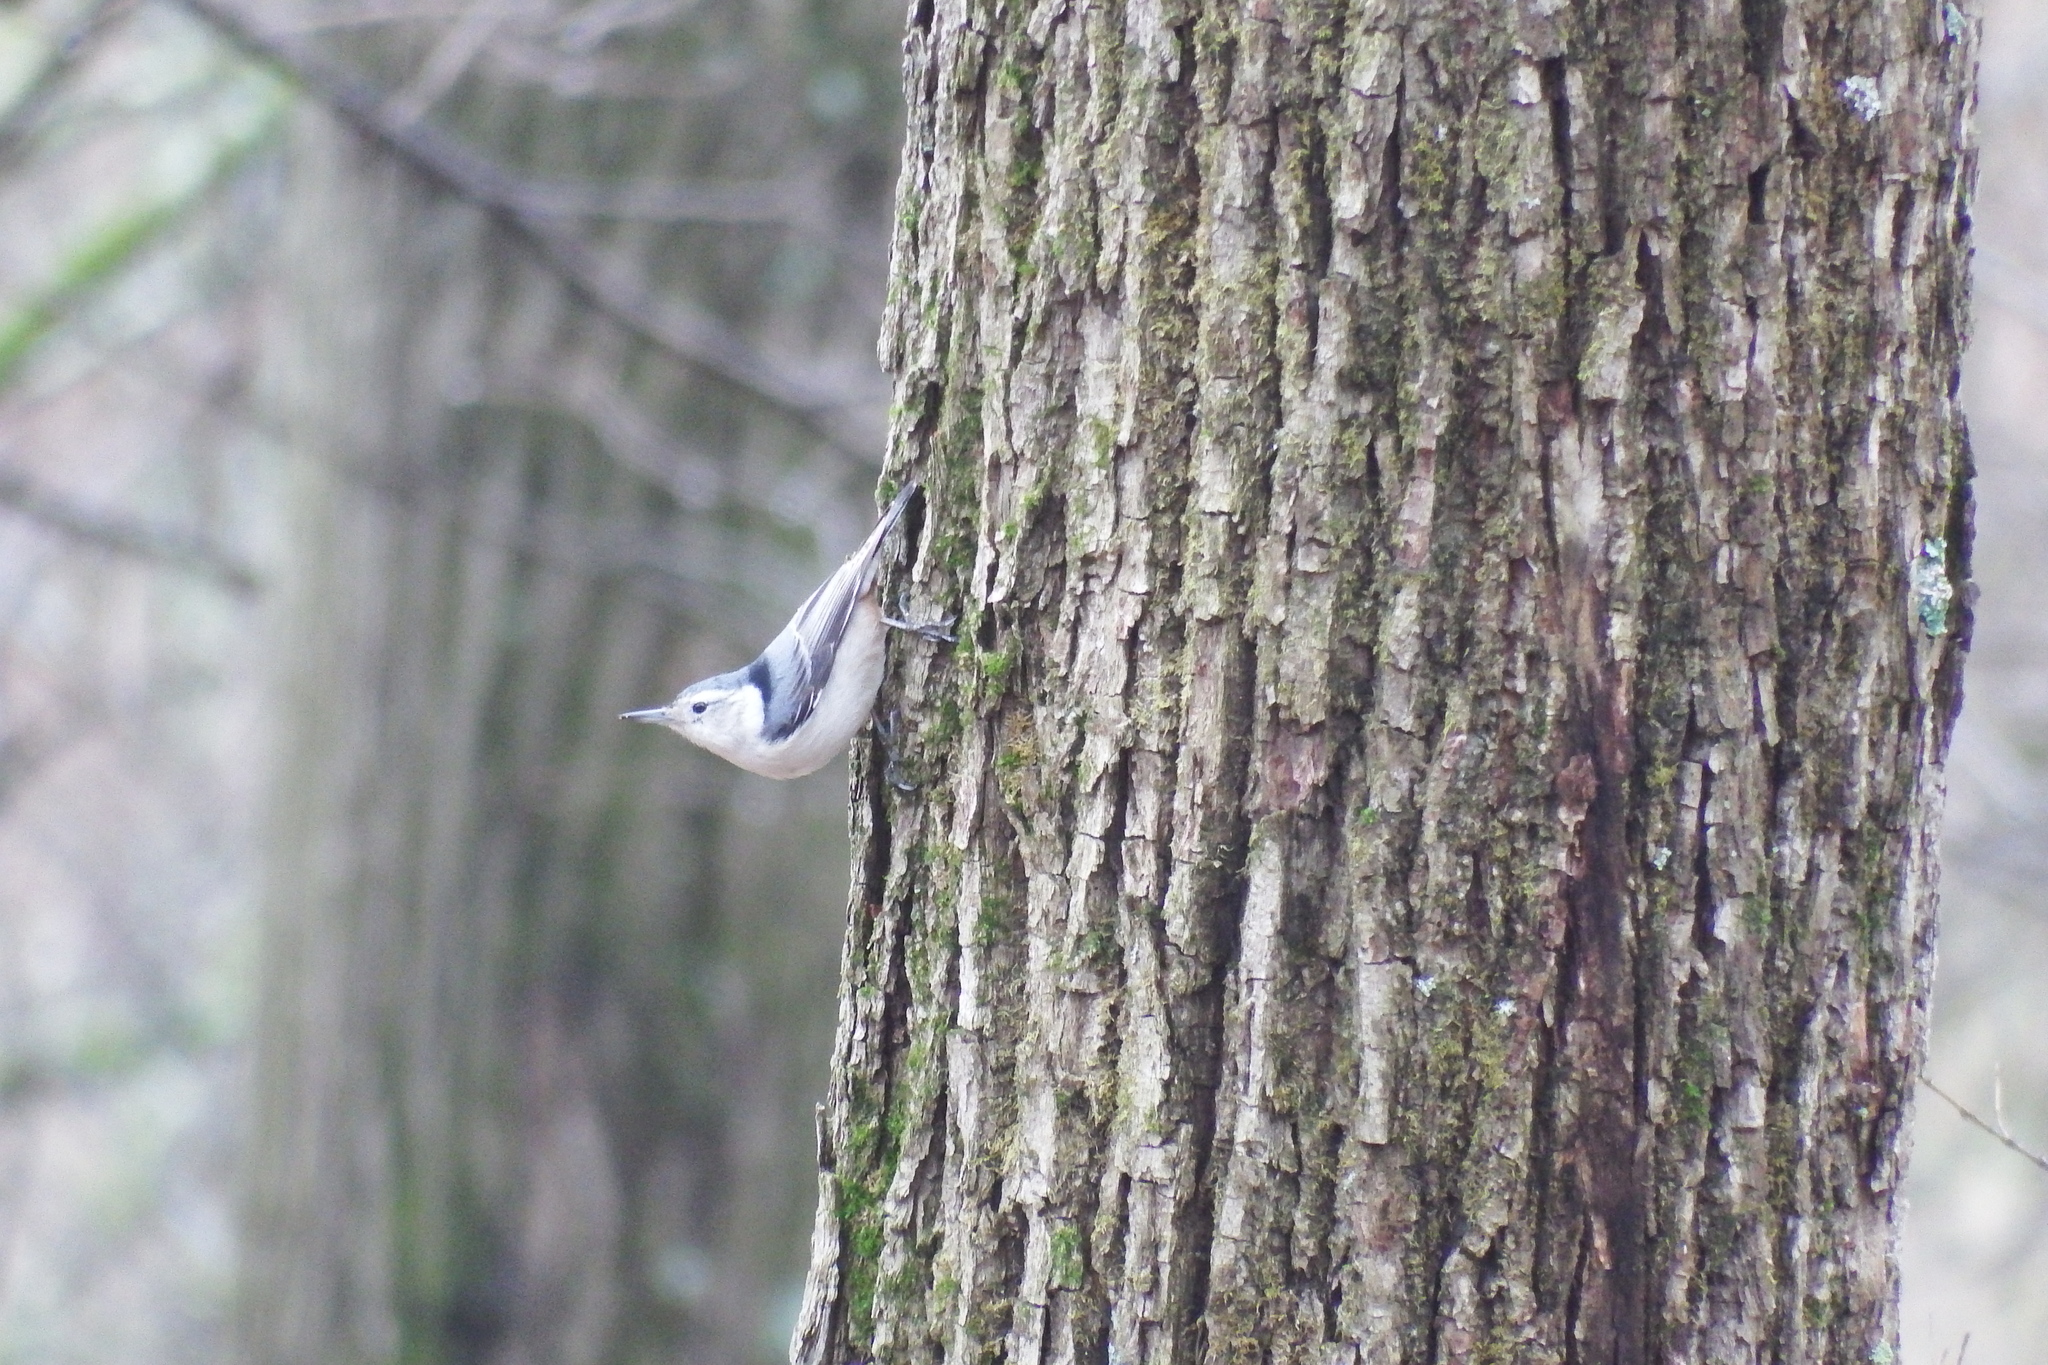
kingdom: Animalia
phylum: Chordata
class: Aves
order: Passeriformes
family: Sittidae
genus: Sitta
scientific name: Sitta carolinensis
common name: White-breasted nuthatch
